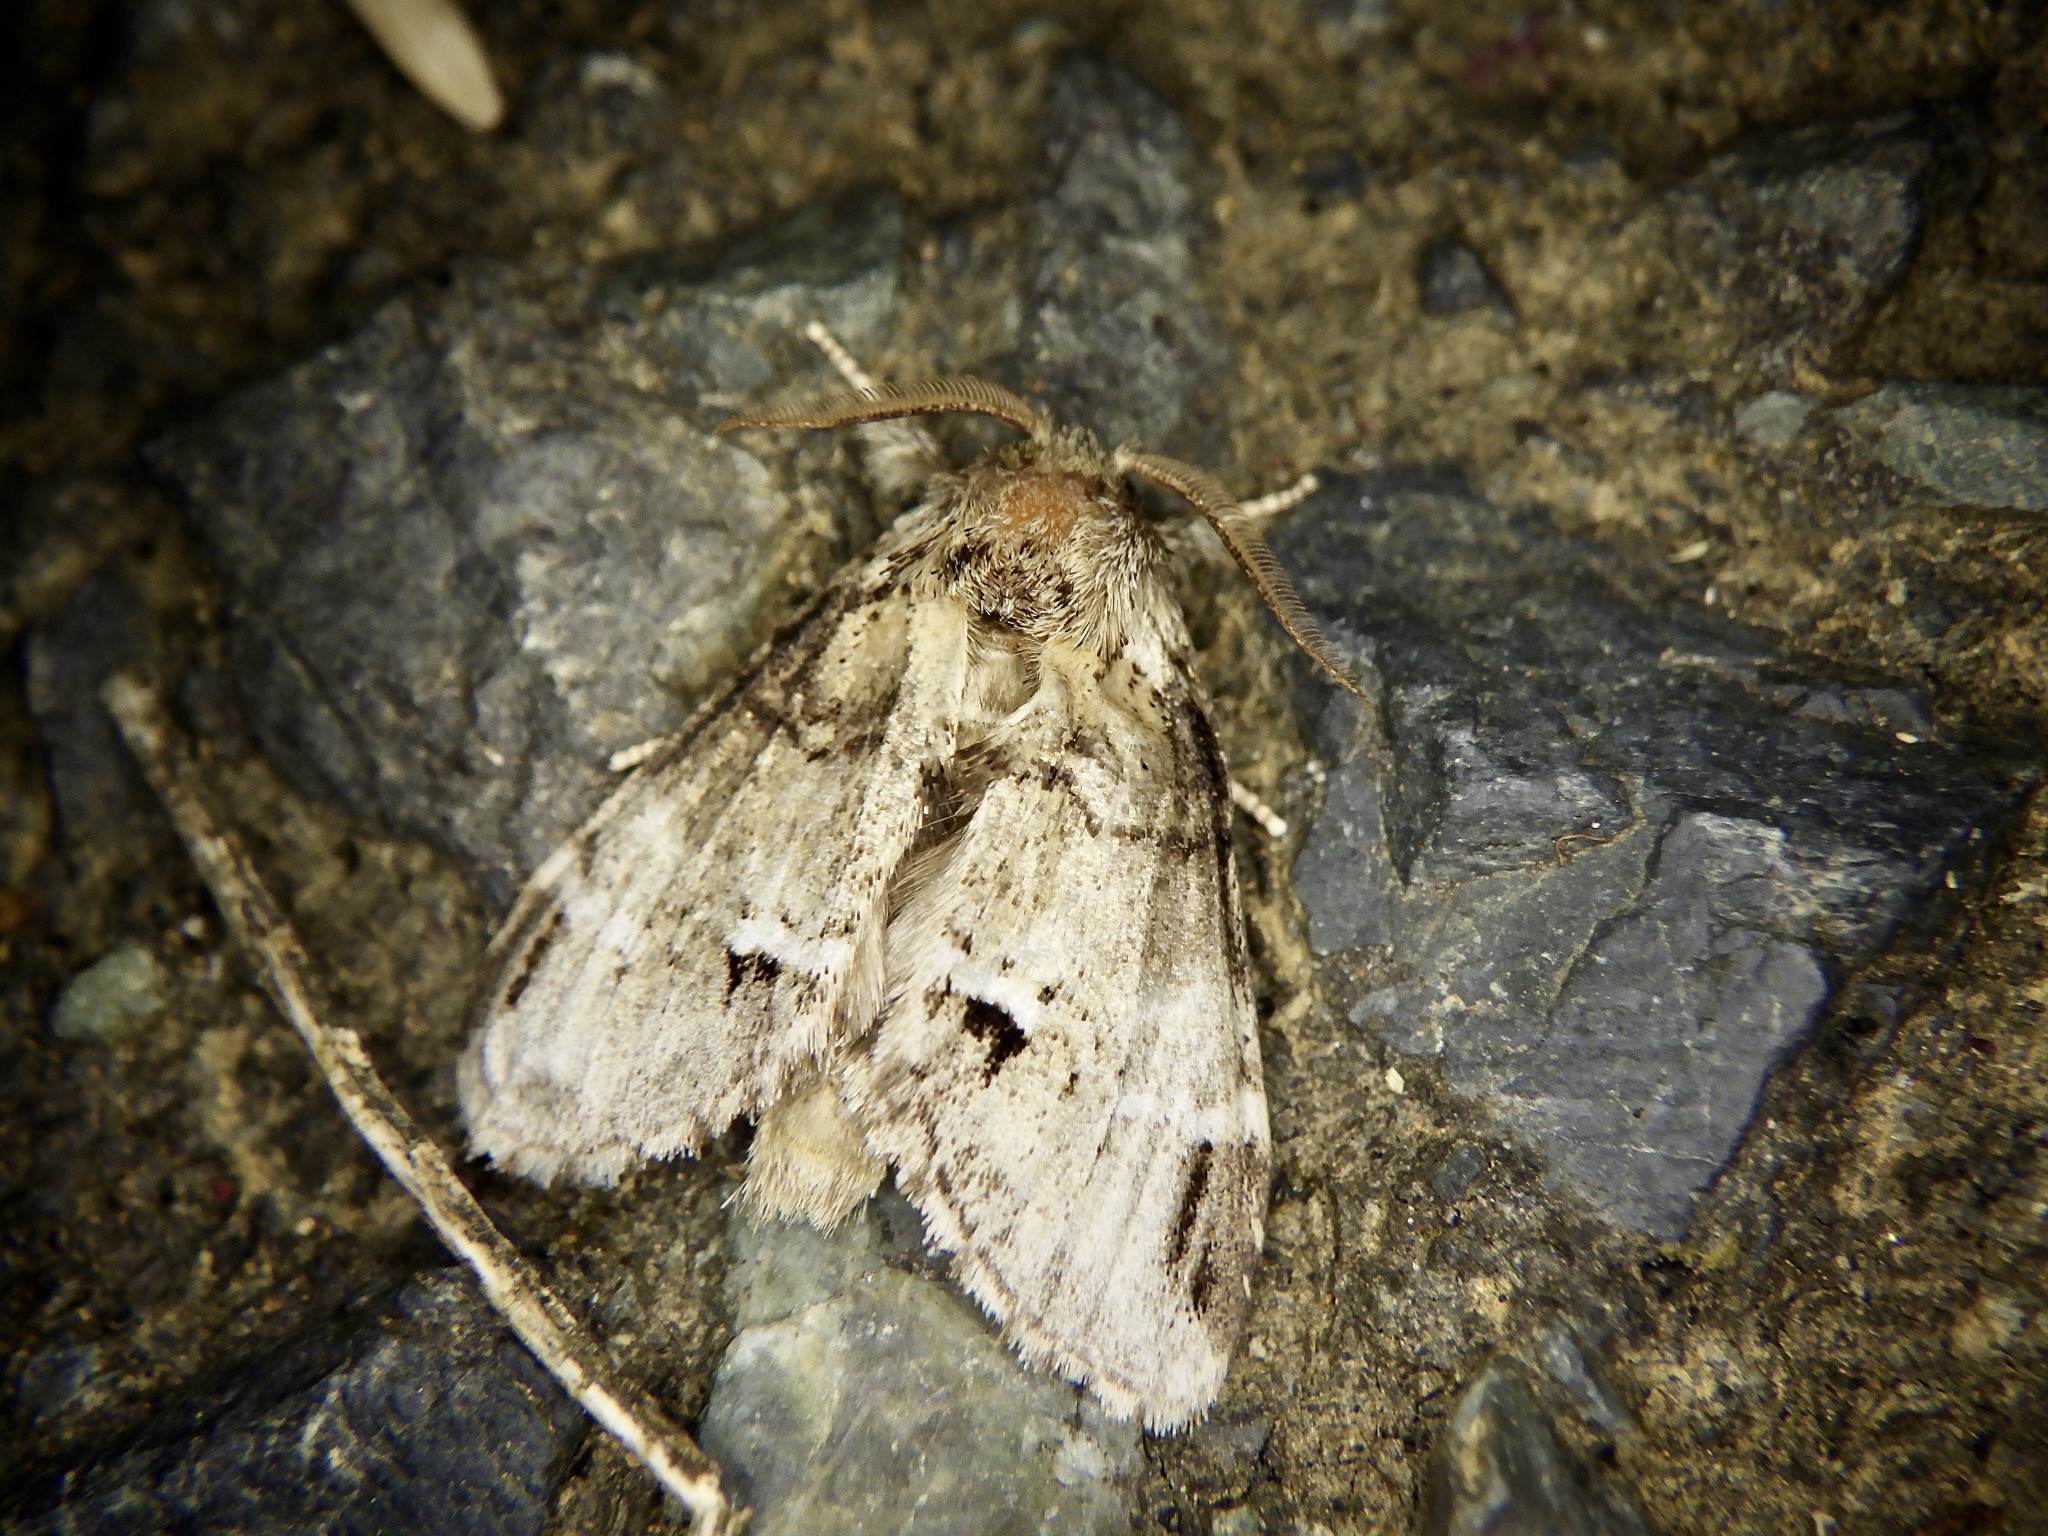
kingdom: Animalia
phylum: Arthropoda
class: Insecta
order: Lepidoptera
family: Notodontidae
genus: Drymonia
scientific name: Drymonia japonica
